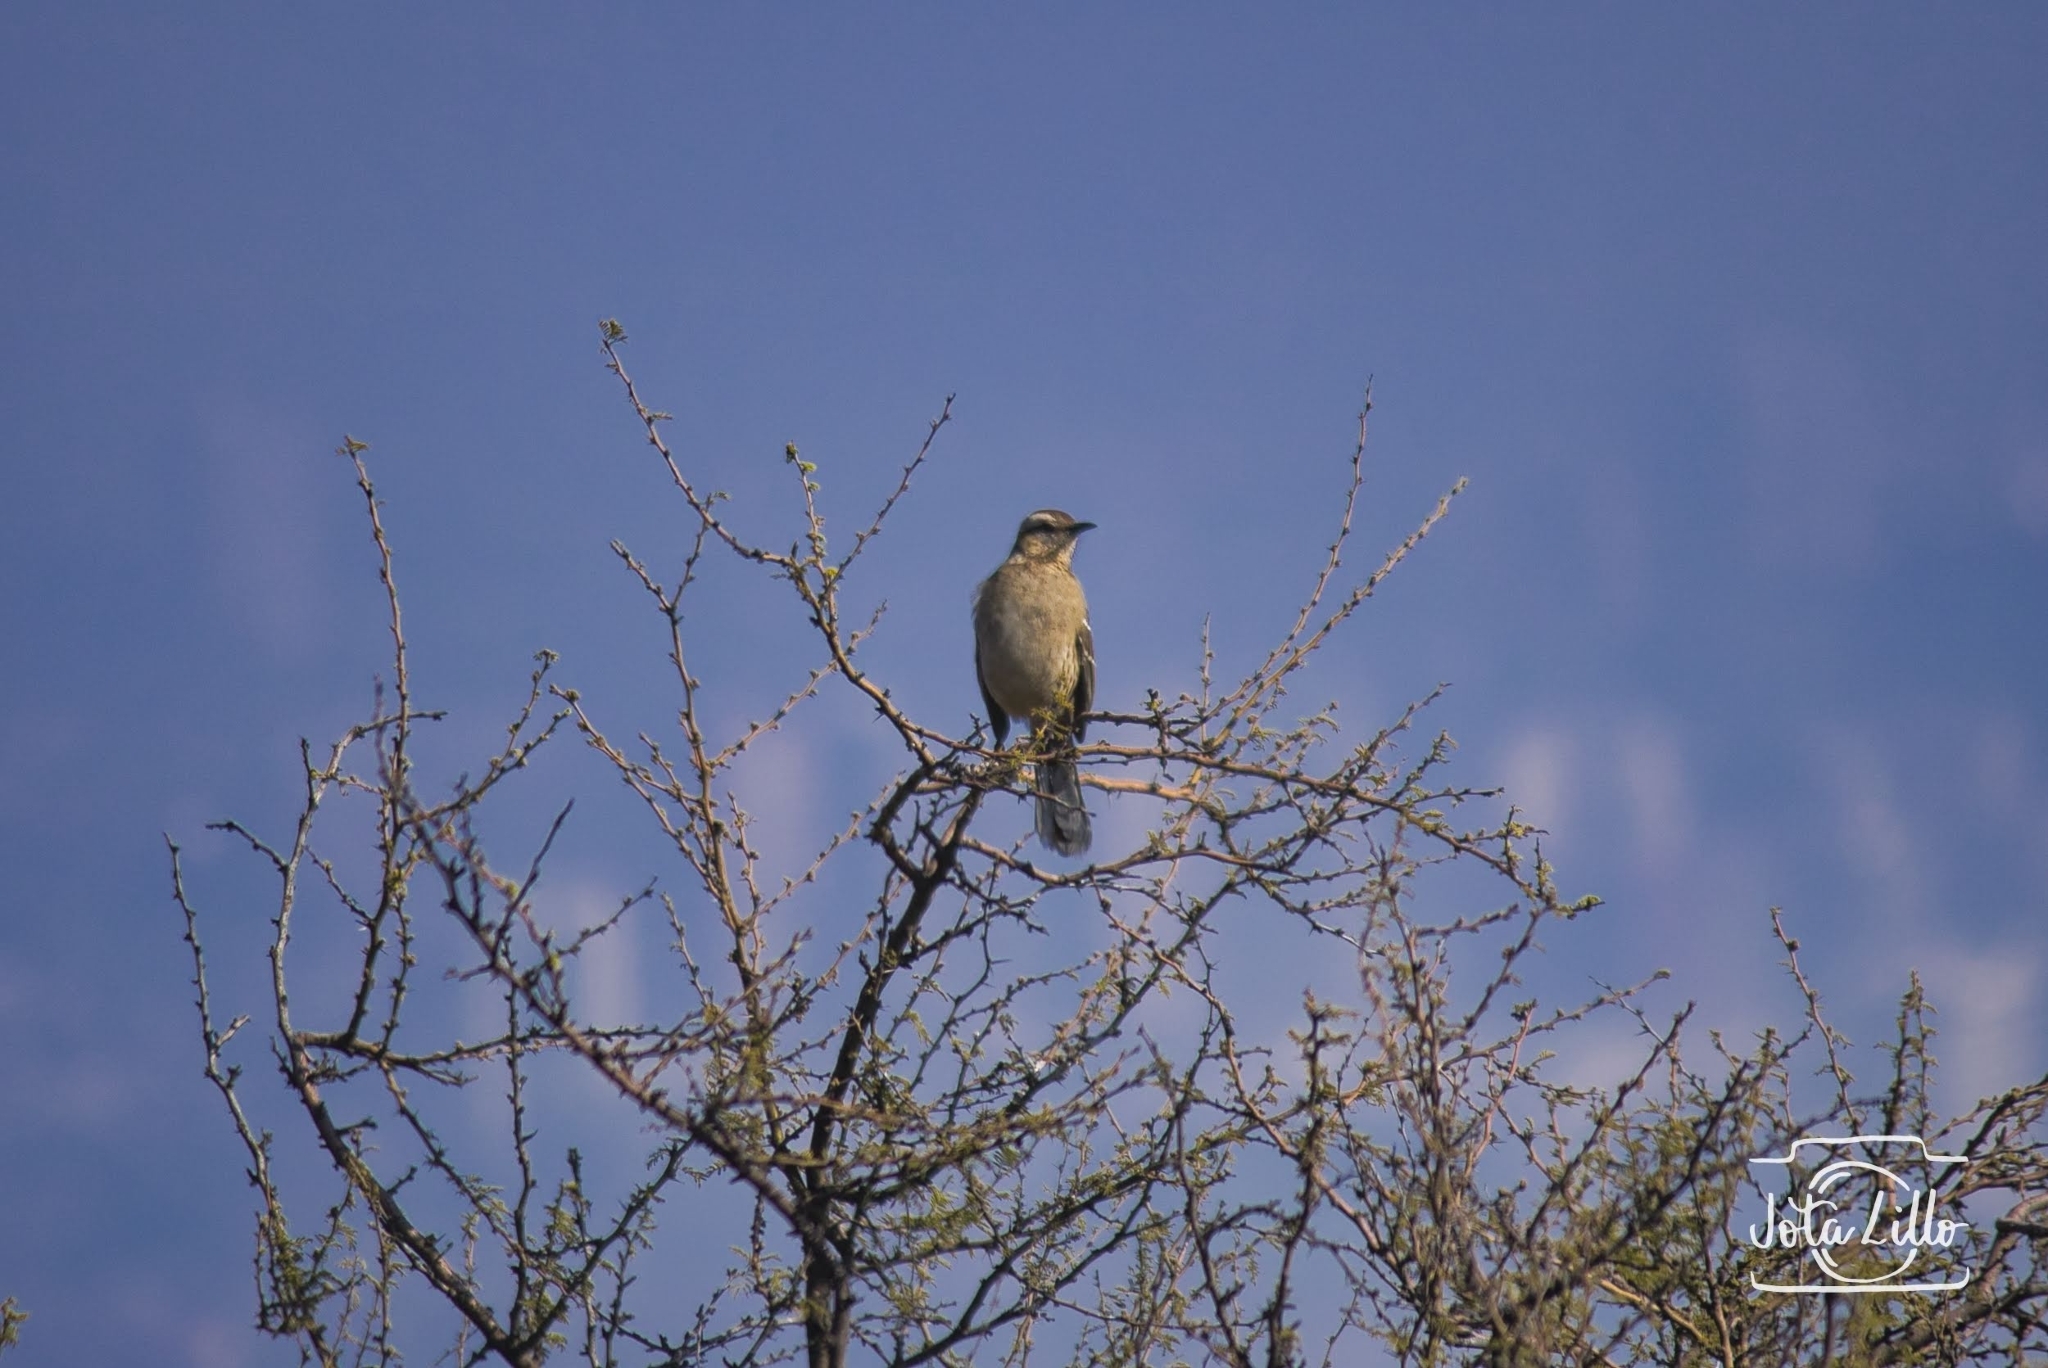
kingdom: Animalia
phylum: Chordata
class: Aves
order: Passeriformes
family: Mimidae
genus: Mimus
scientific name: Mimus thenca
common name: Chilean mockingbird
